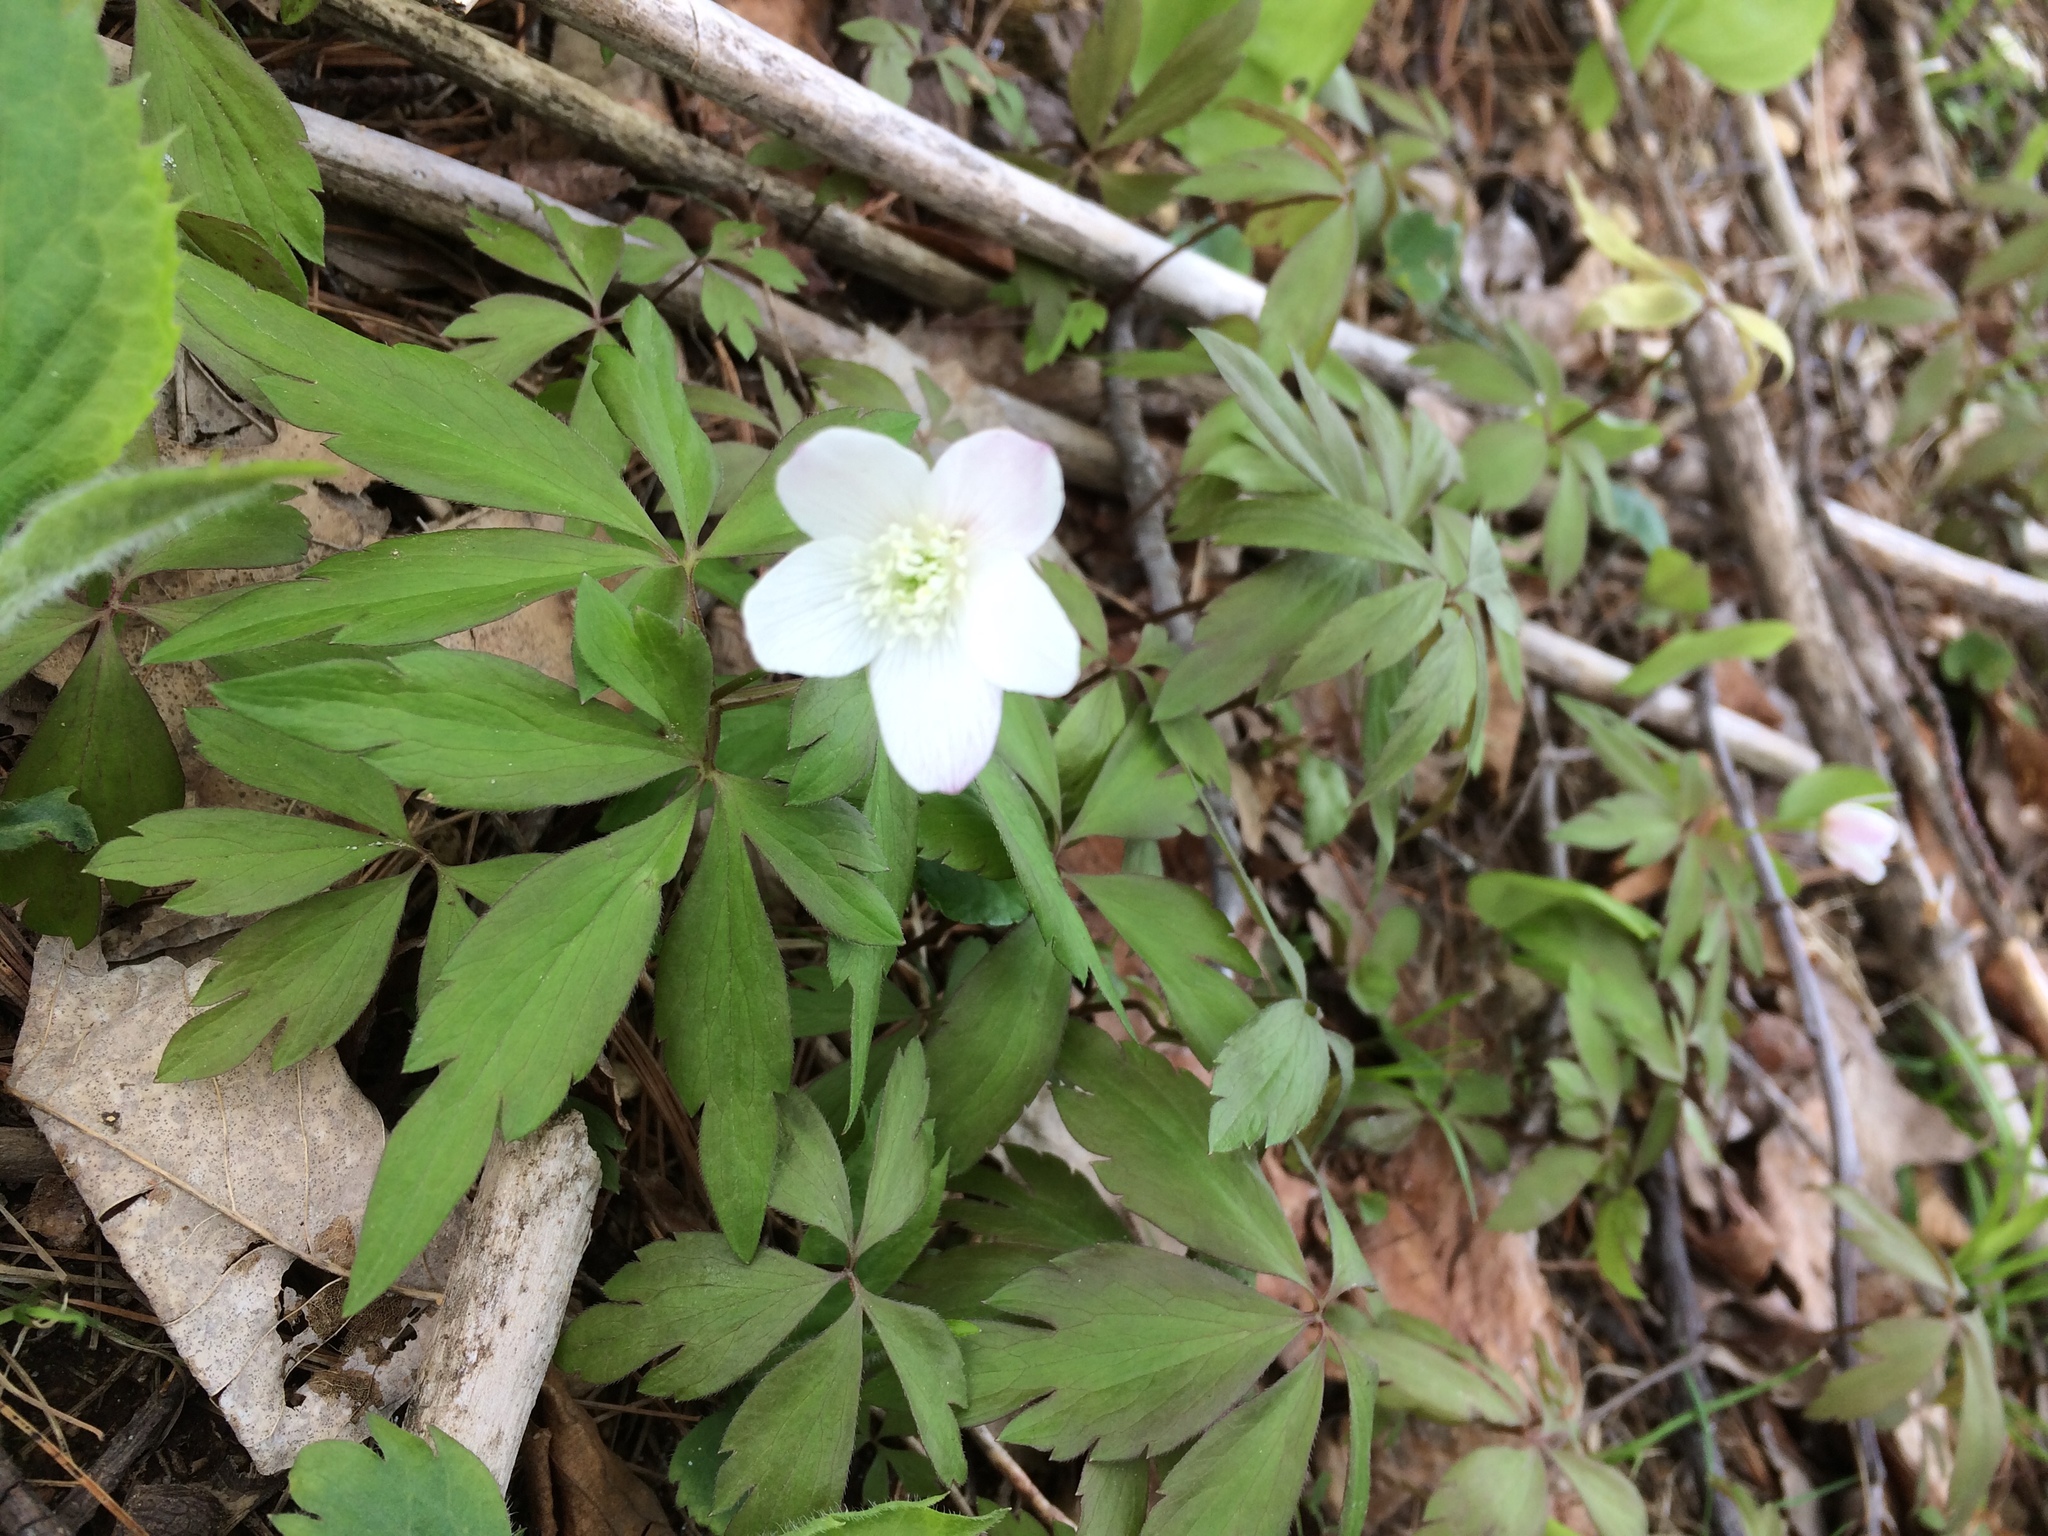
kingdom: Plantae
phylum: Tracheophyta
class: Magnoliopsida
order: Ranunculales
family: Ranunculaceae
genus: Anemone
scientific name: Anemone quinquefolia
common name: Wood anemone
